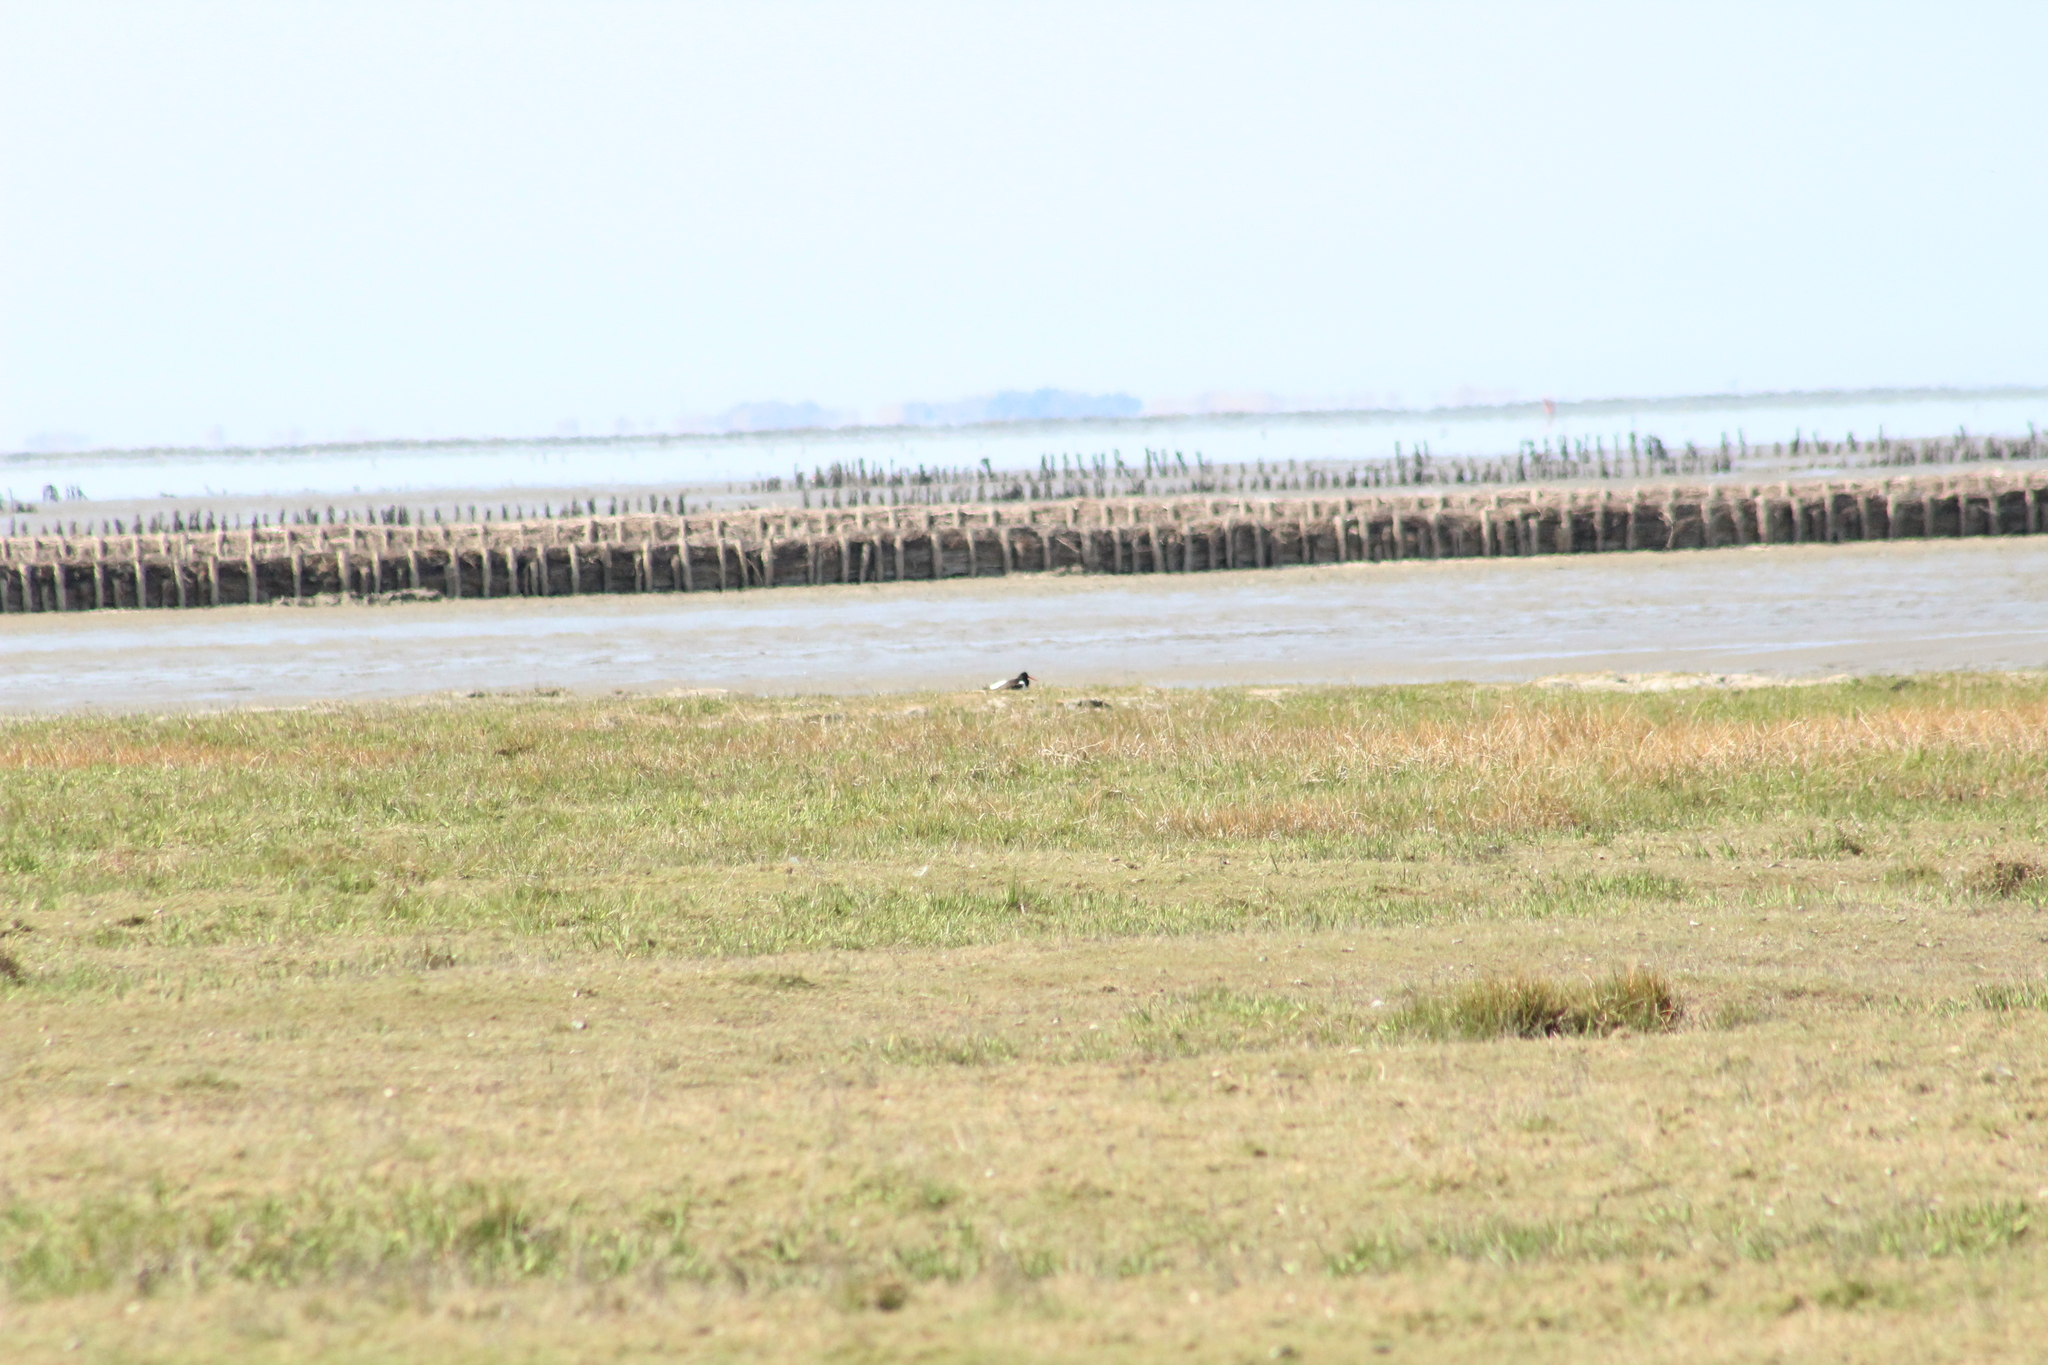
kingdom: Animalia
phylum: Chordata
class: Aves
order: Charadriiformes
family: Haematopodidae
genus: Haematopus
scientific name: Haematopus ostralegus
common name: Eurasian oystercatcher
